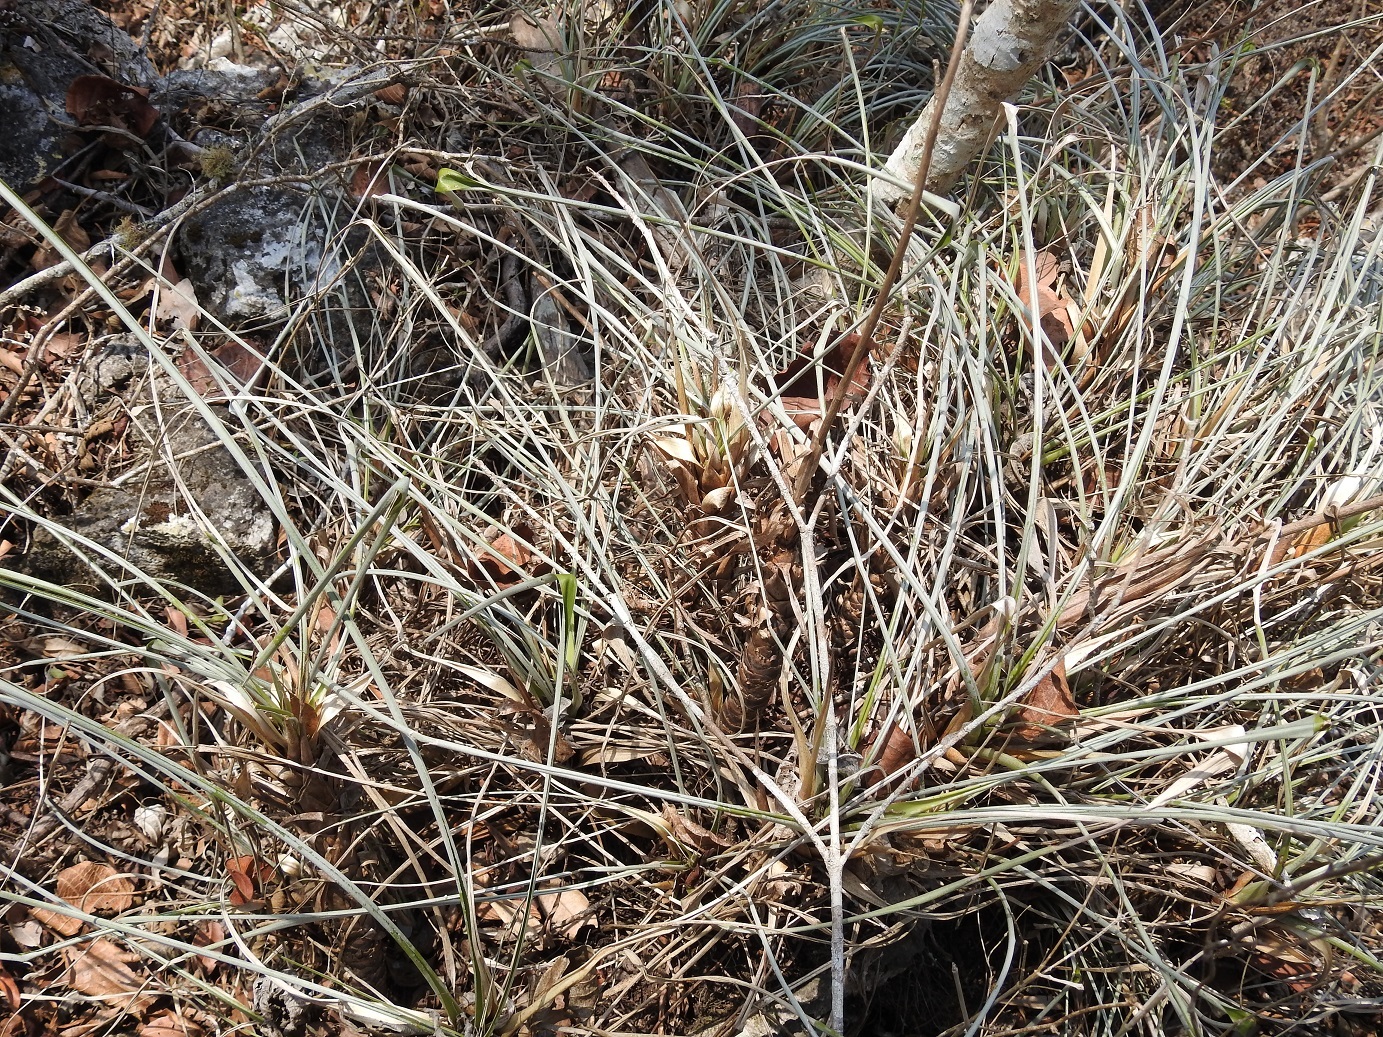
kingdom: Plantae
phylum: Tracheophyta
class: Liliopsida
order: Poales
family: Bromeliaceae
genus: Pitcairnia
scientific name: Pitcairnia breedlovei
